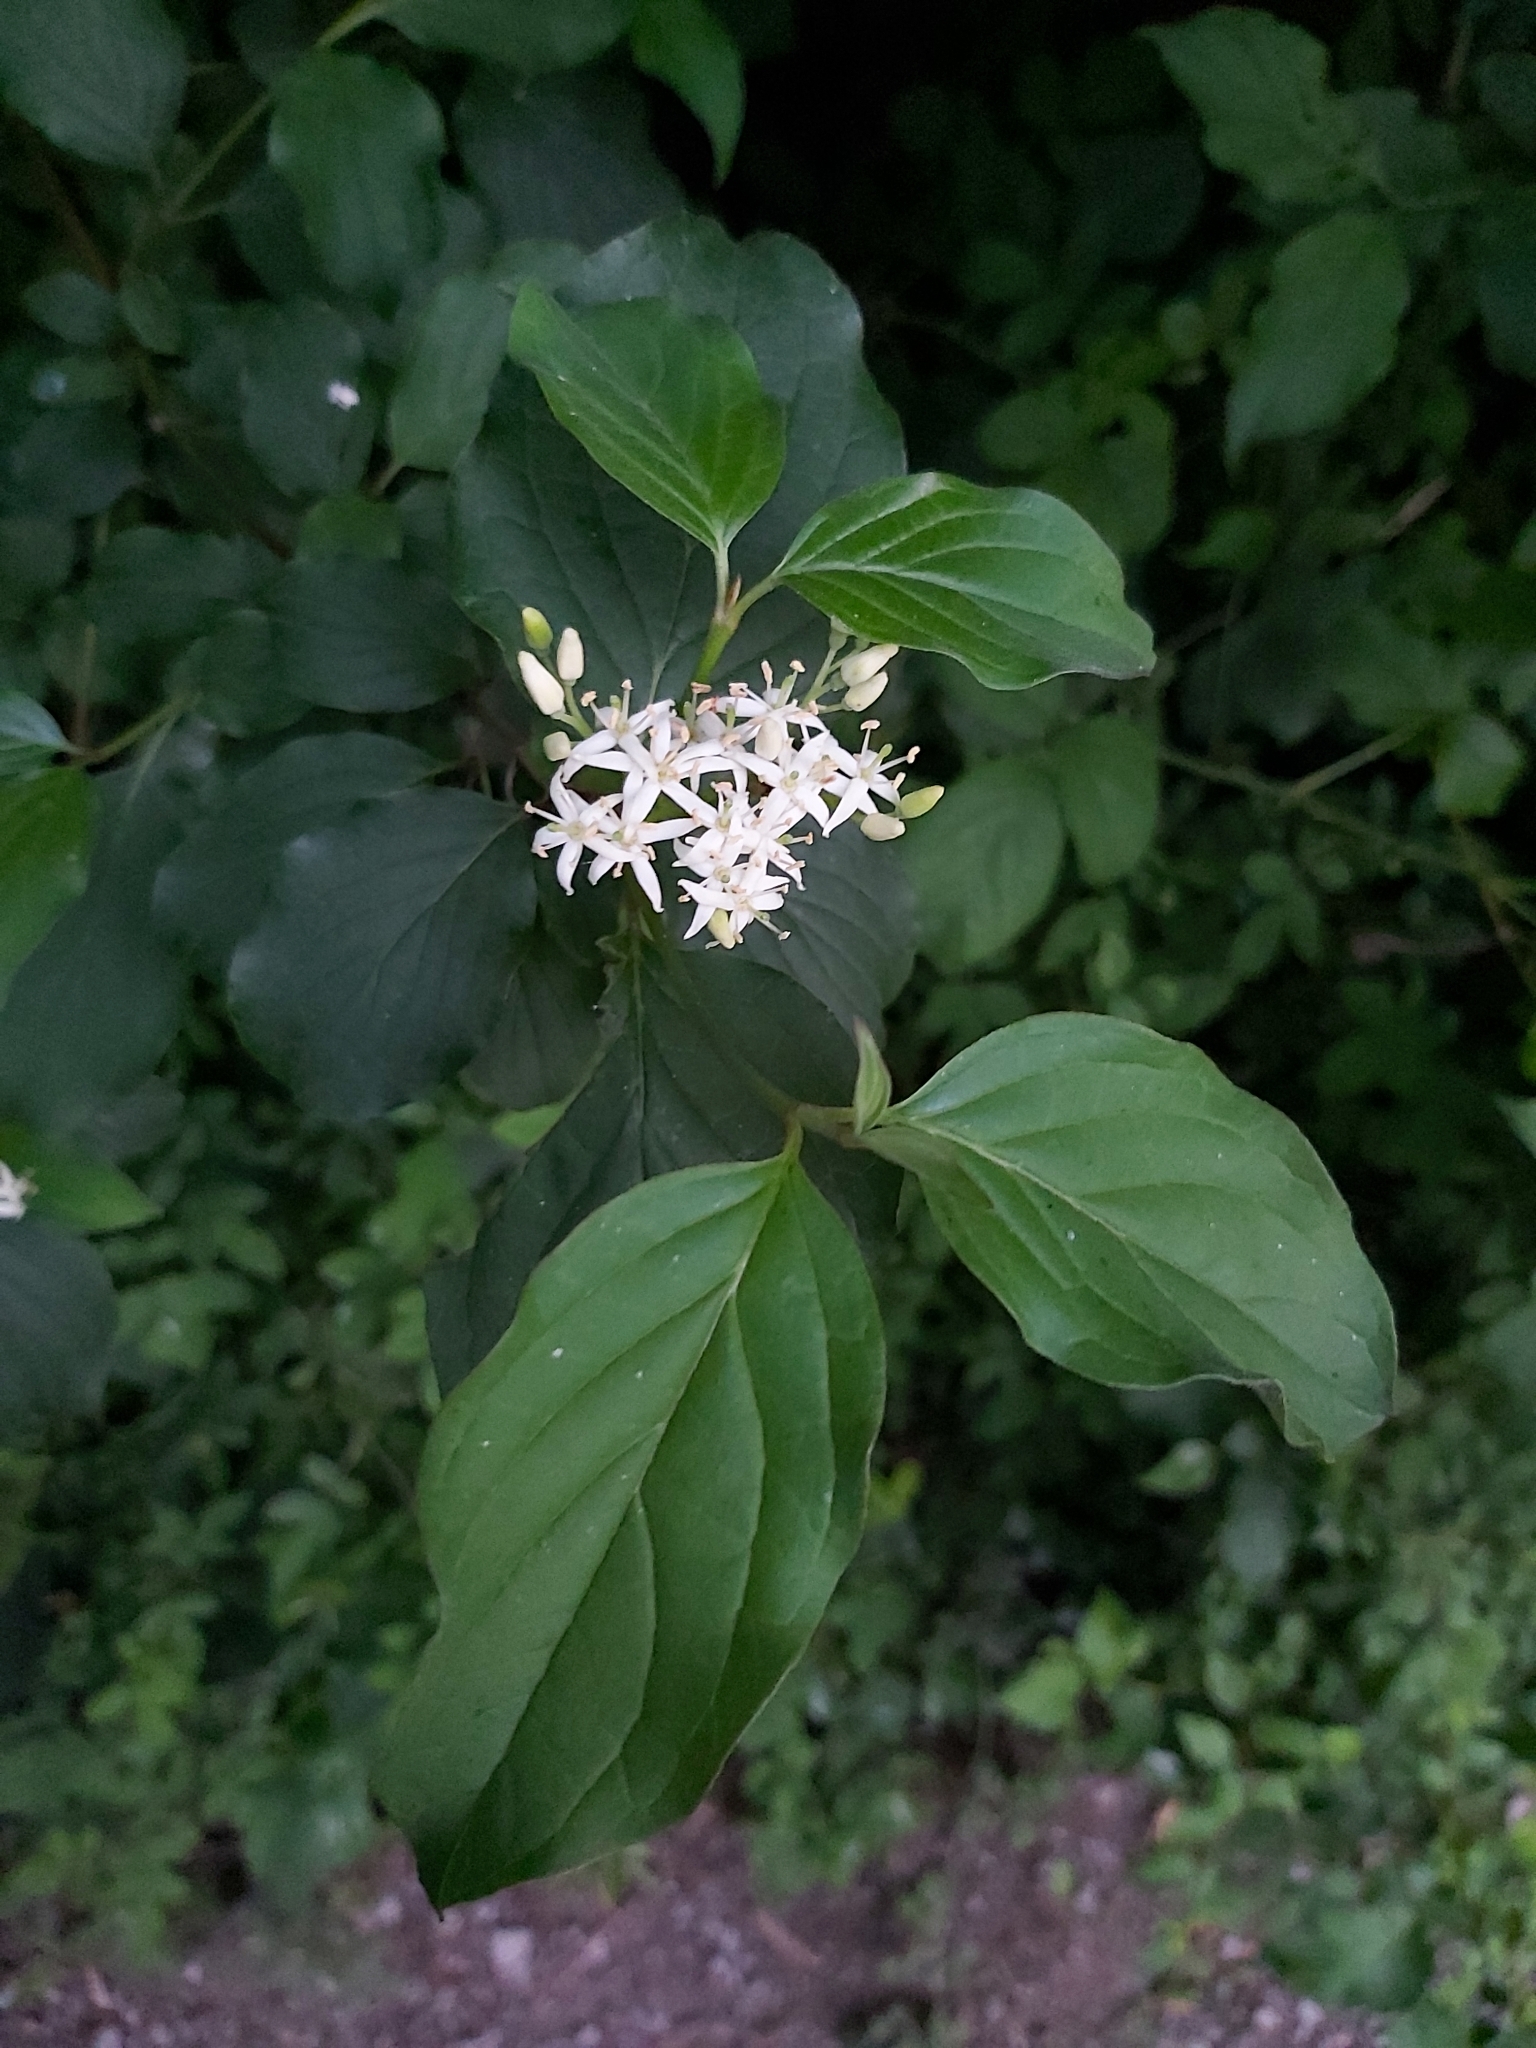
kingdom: Plantae
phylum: Tracheophyta
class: Magnoliopsida
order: Cornales
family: Cornaceae
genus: Cornus
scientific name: Cornus sanguinea
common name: Dogwood
